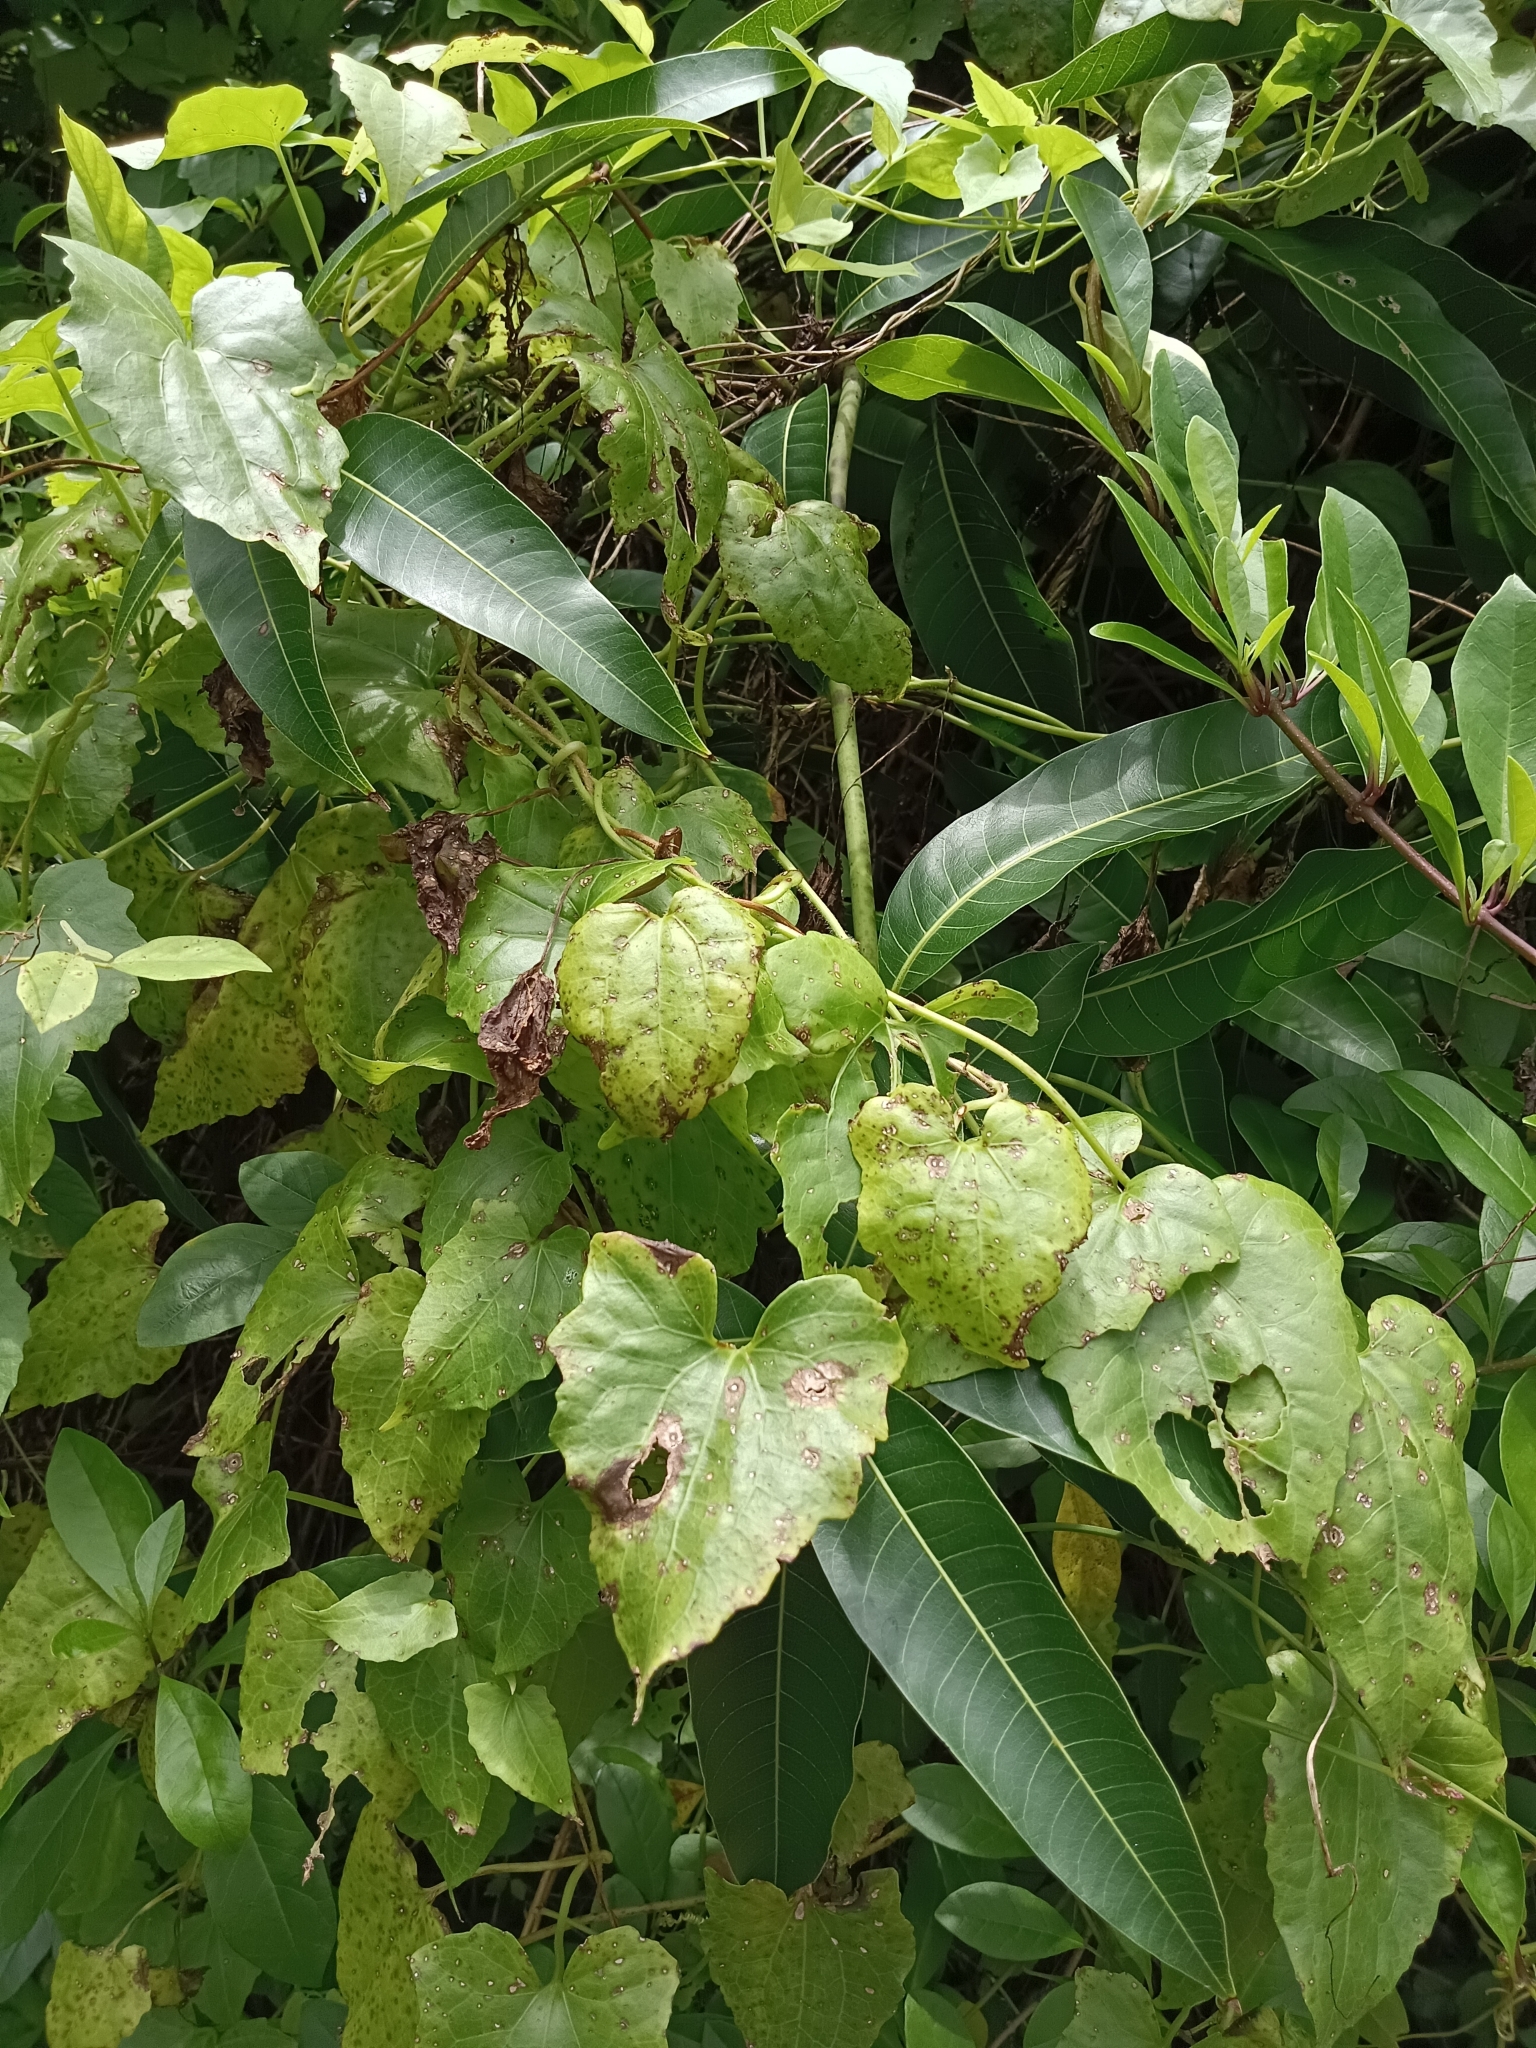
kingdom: Plantae
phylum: Tracheophyta
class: Magnoliopsida
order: Asterales
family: Asteraceae
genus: Mikania
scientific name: Mikania micrantha
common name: Mile-a-minute
